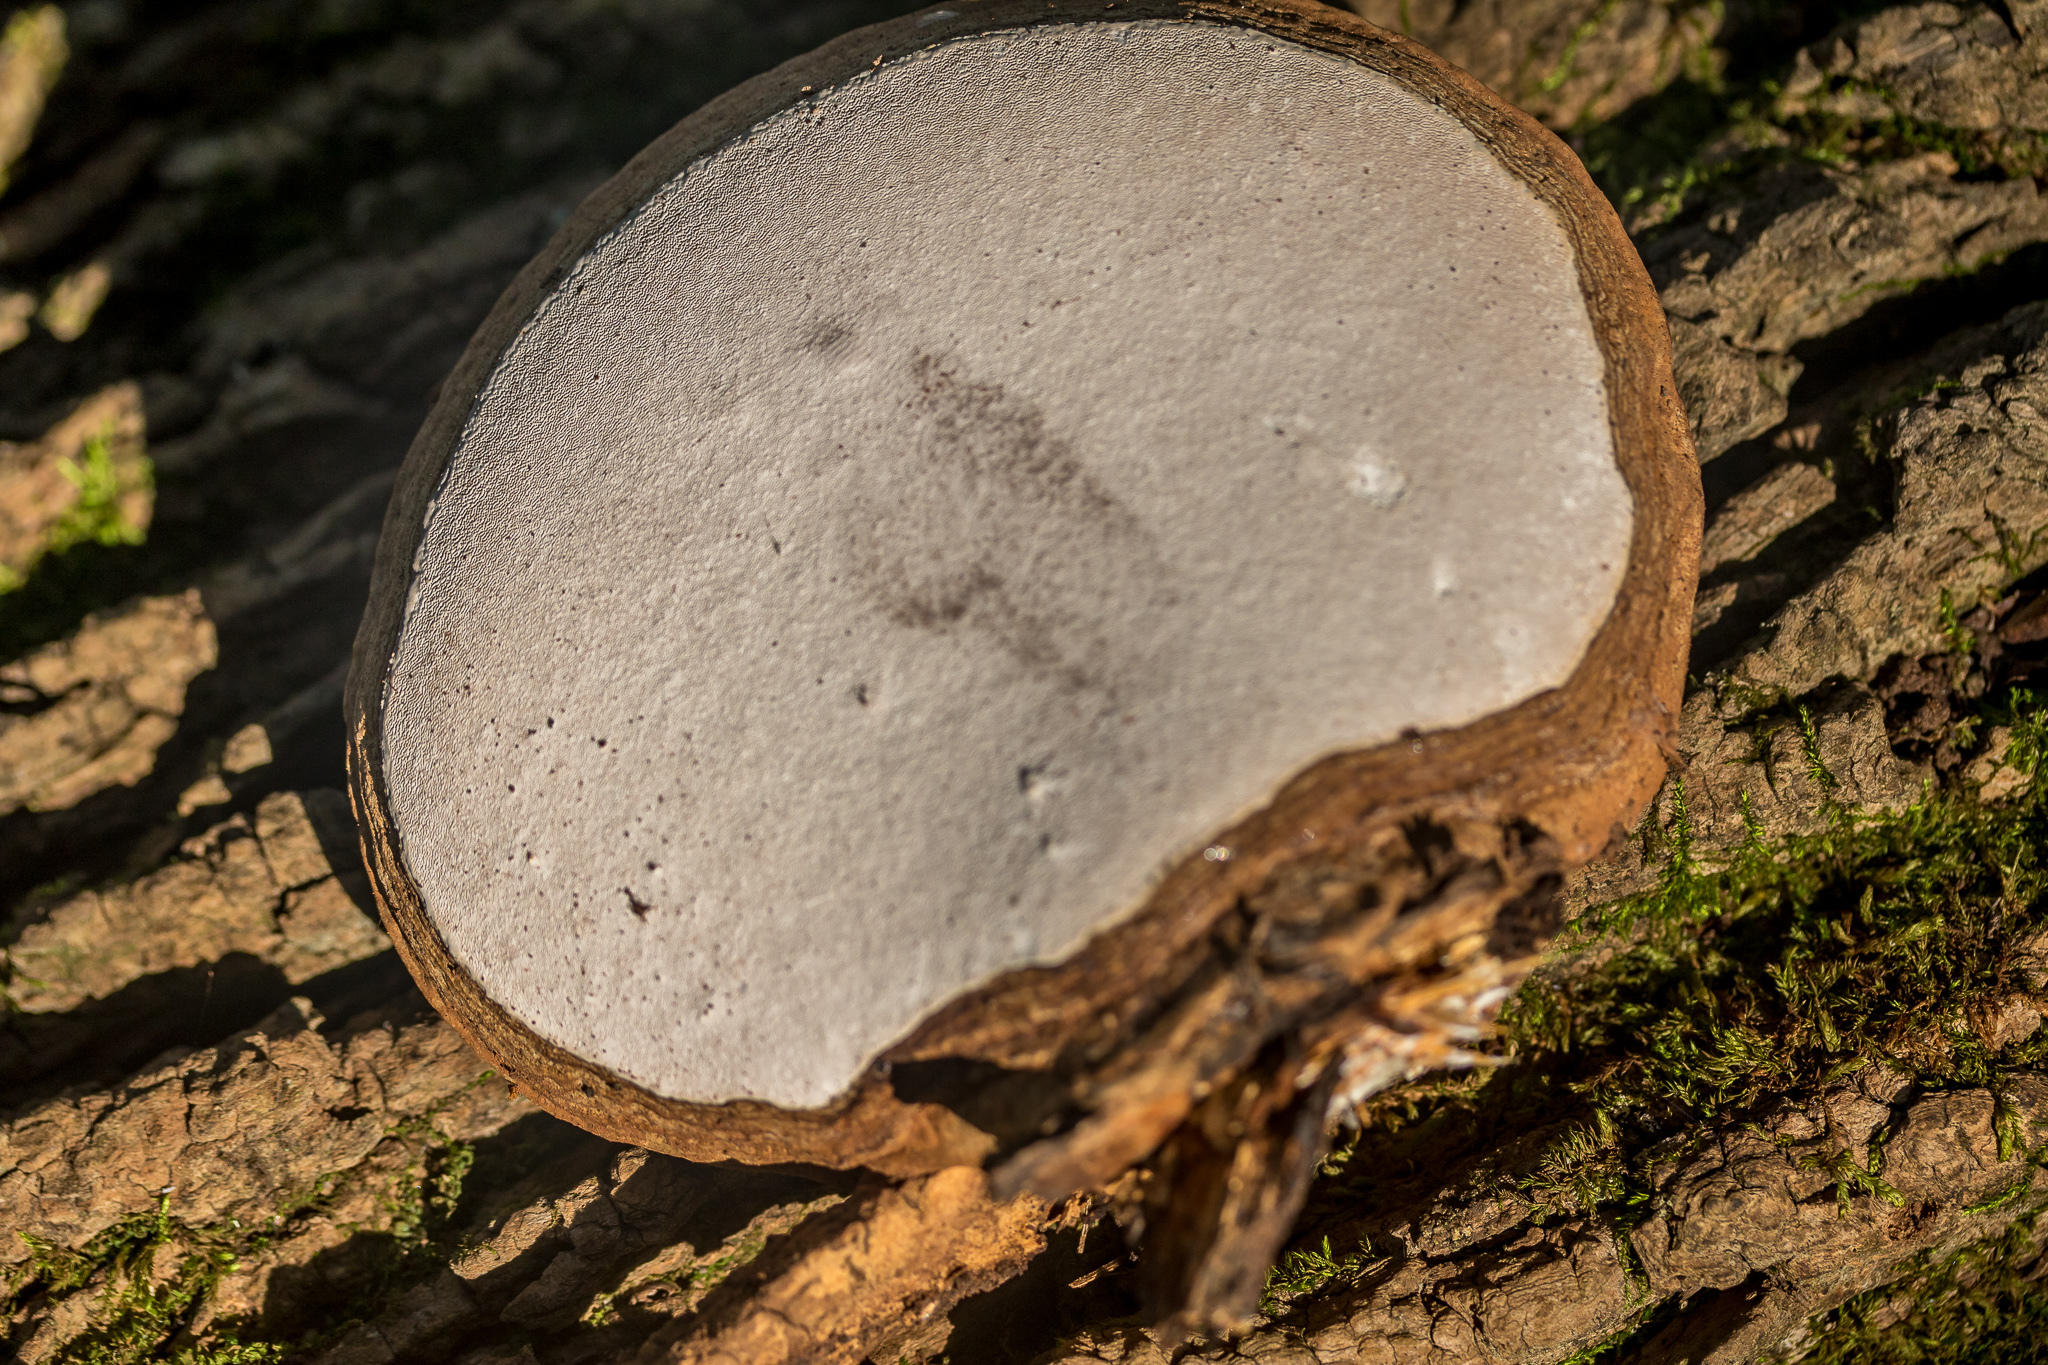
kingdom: Fungi
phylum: Basidiomycota
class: Agaricomycetes
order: Polyporales
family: Polyporaceae
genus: Ganoderma
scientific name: Ganoderma lobatum
